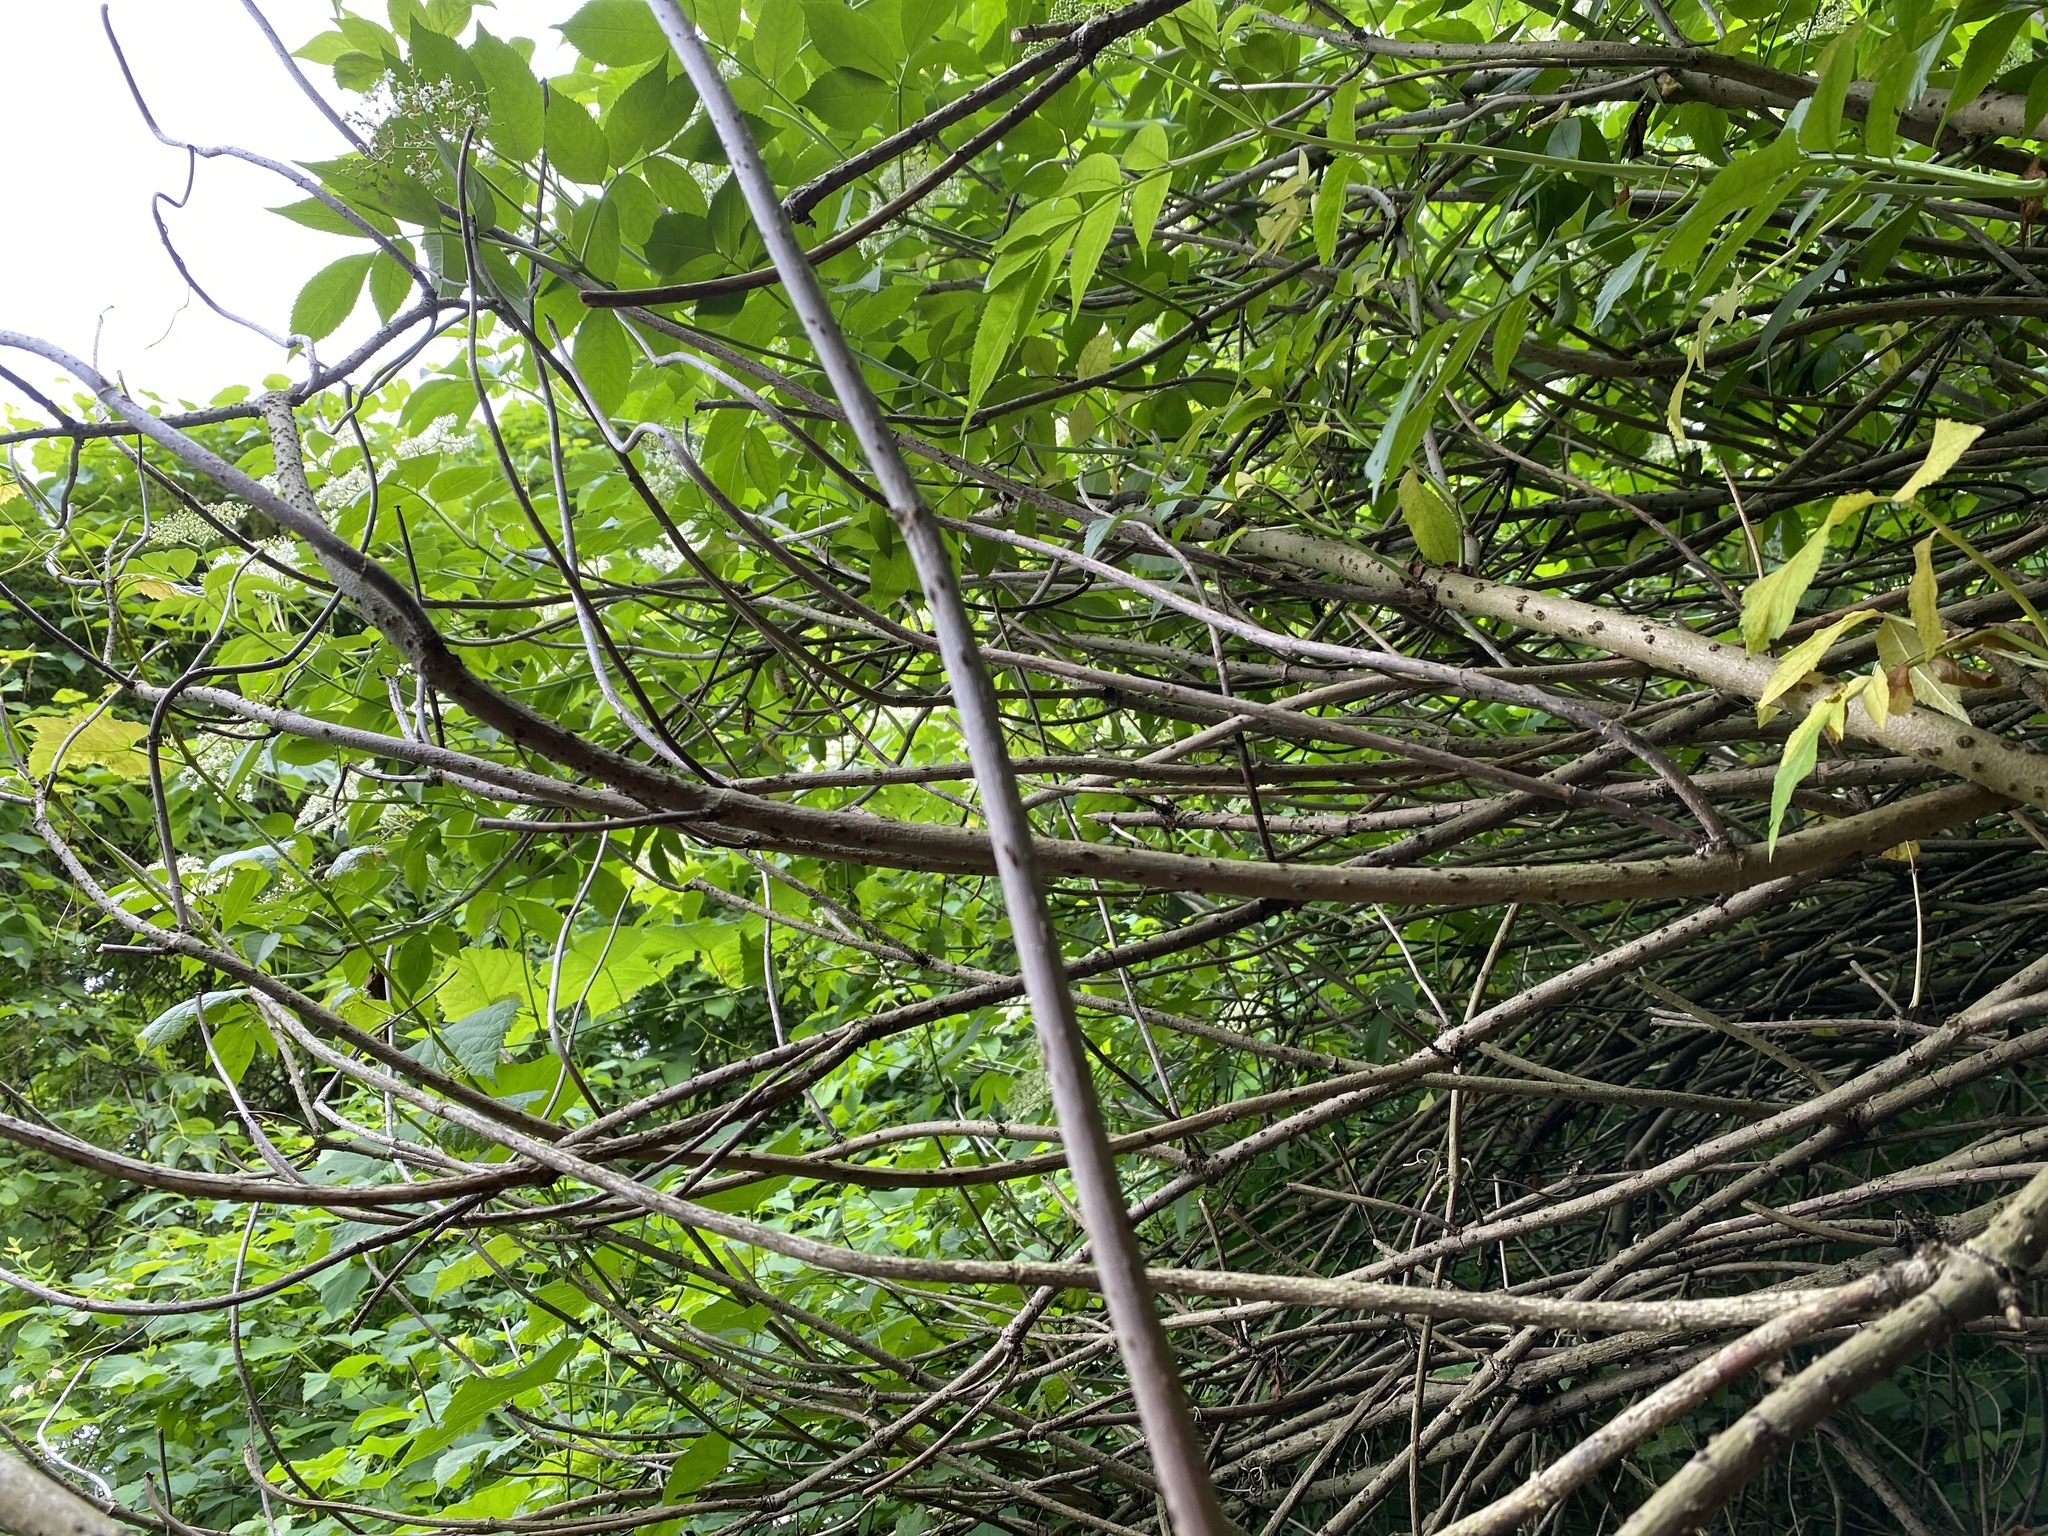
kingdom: Plantae
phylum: Tracheophyta
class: Magnoliopsida
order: Dipsacales
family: Viburnaceae
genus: Sambucus
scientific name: Sambucus canadensis
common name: American elder
